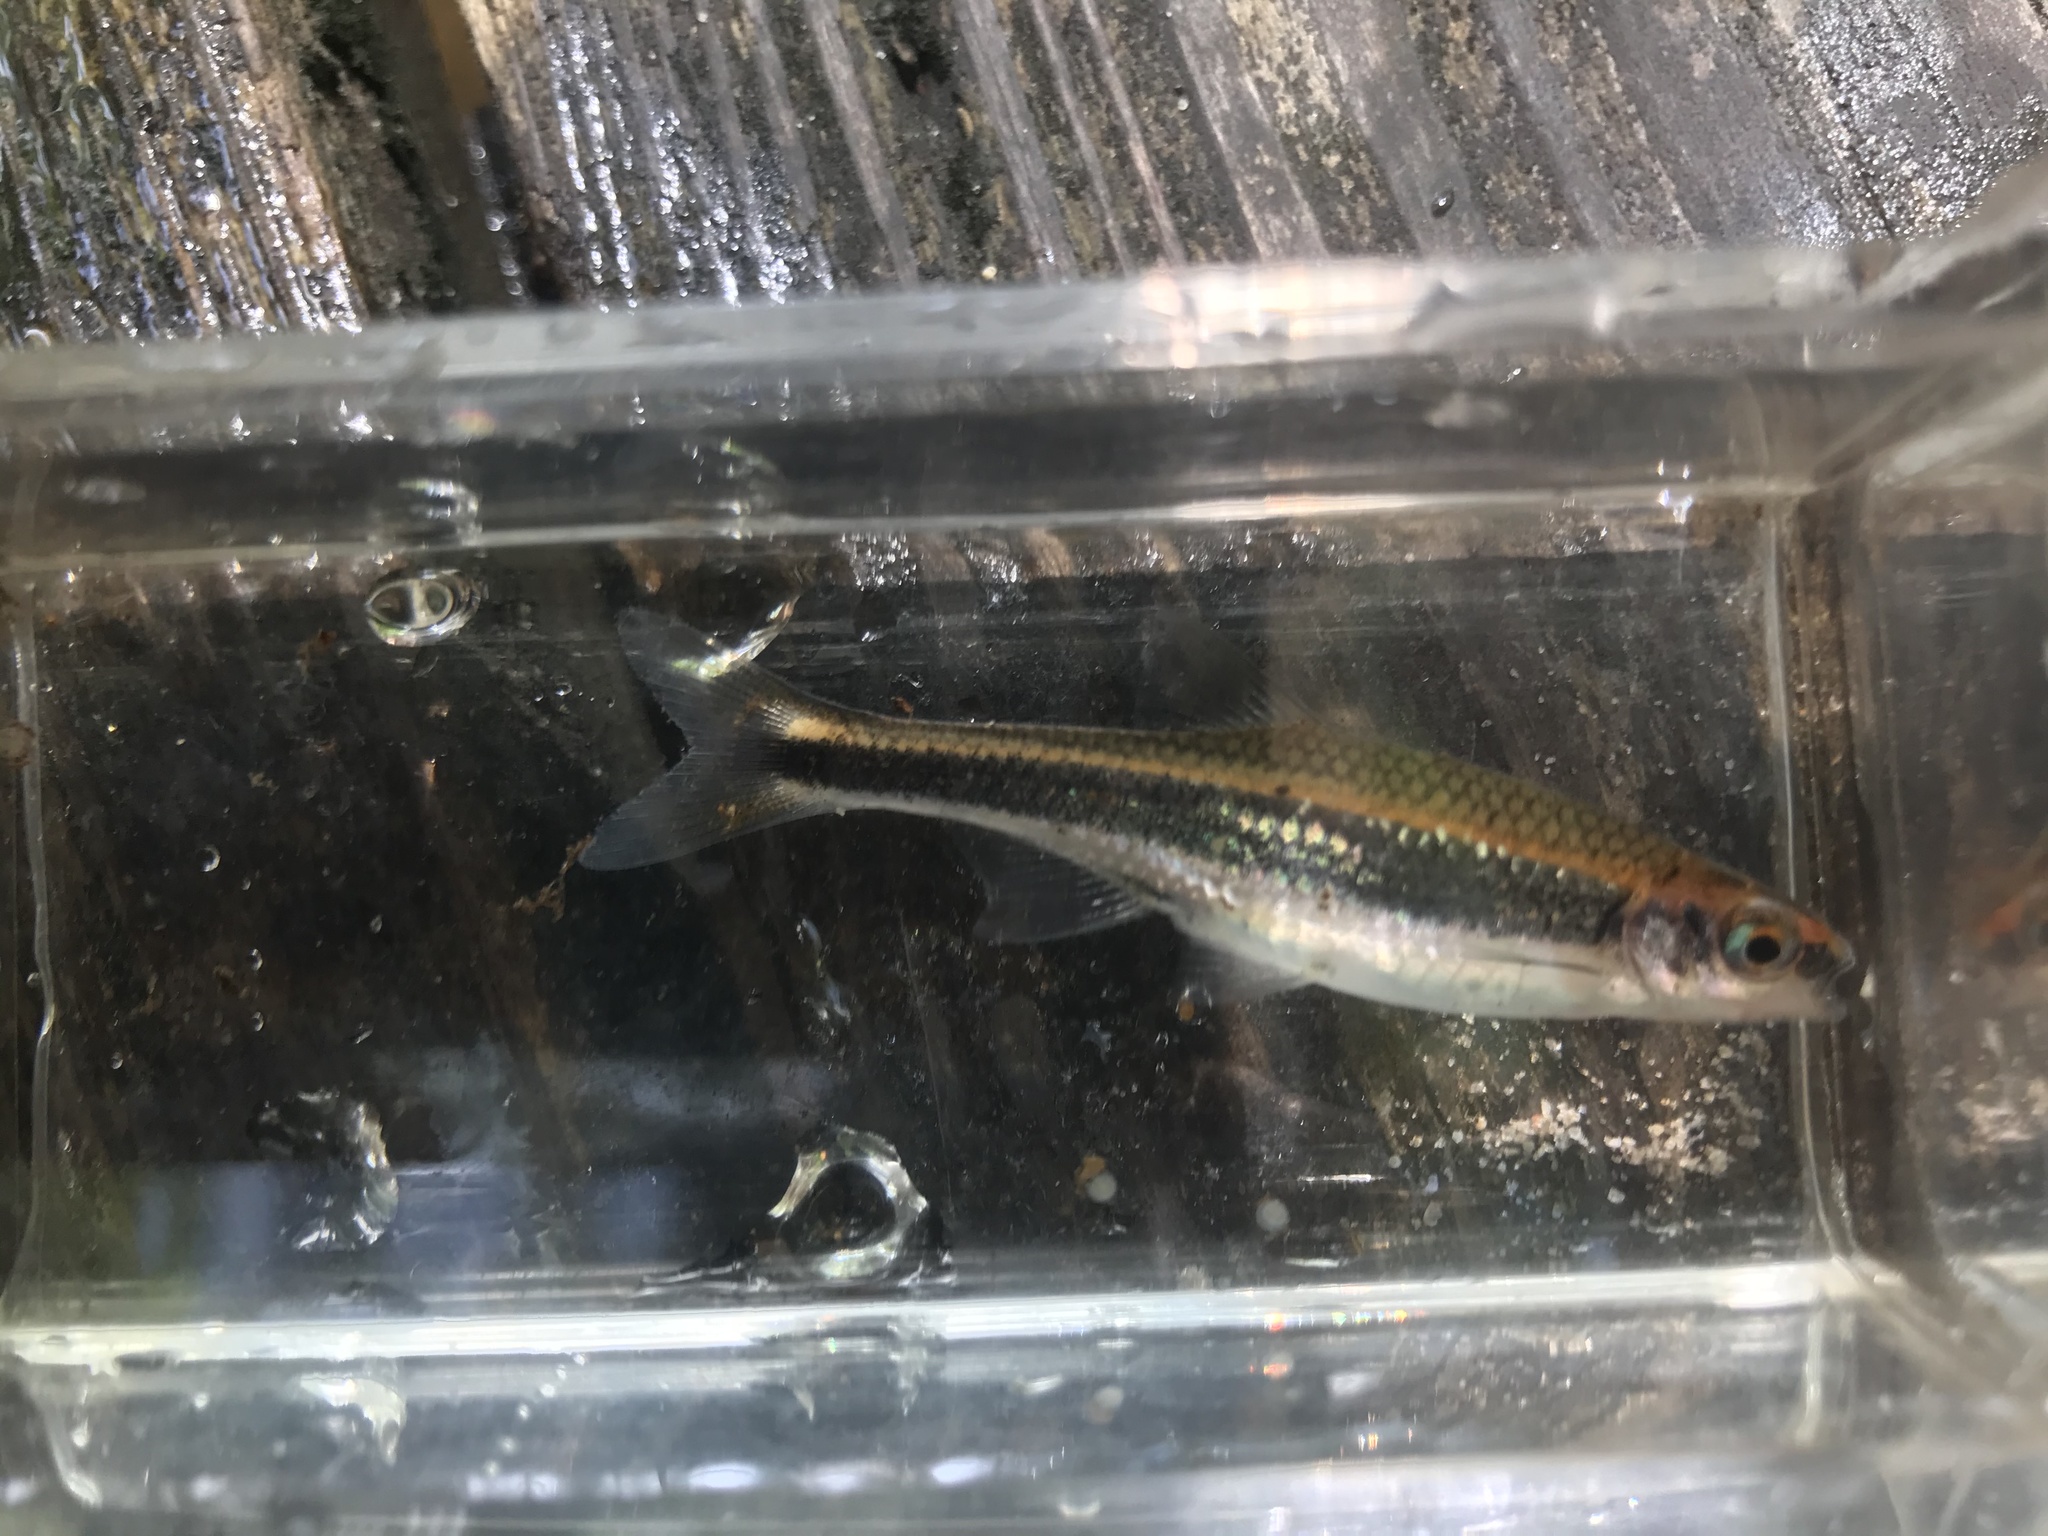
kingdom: Animalia
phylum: Chordata
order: Cypriniformes
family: Cyprinidae
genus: Pteronotropis
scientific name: Pteronotropis
